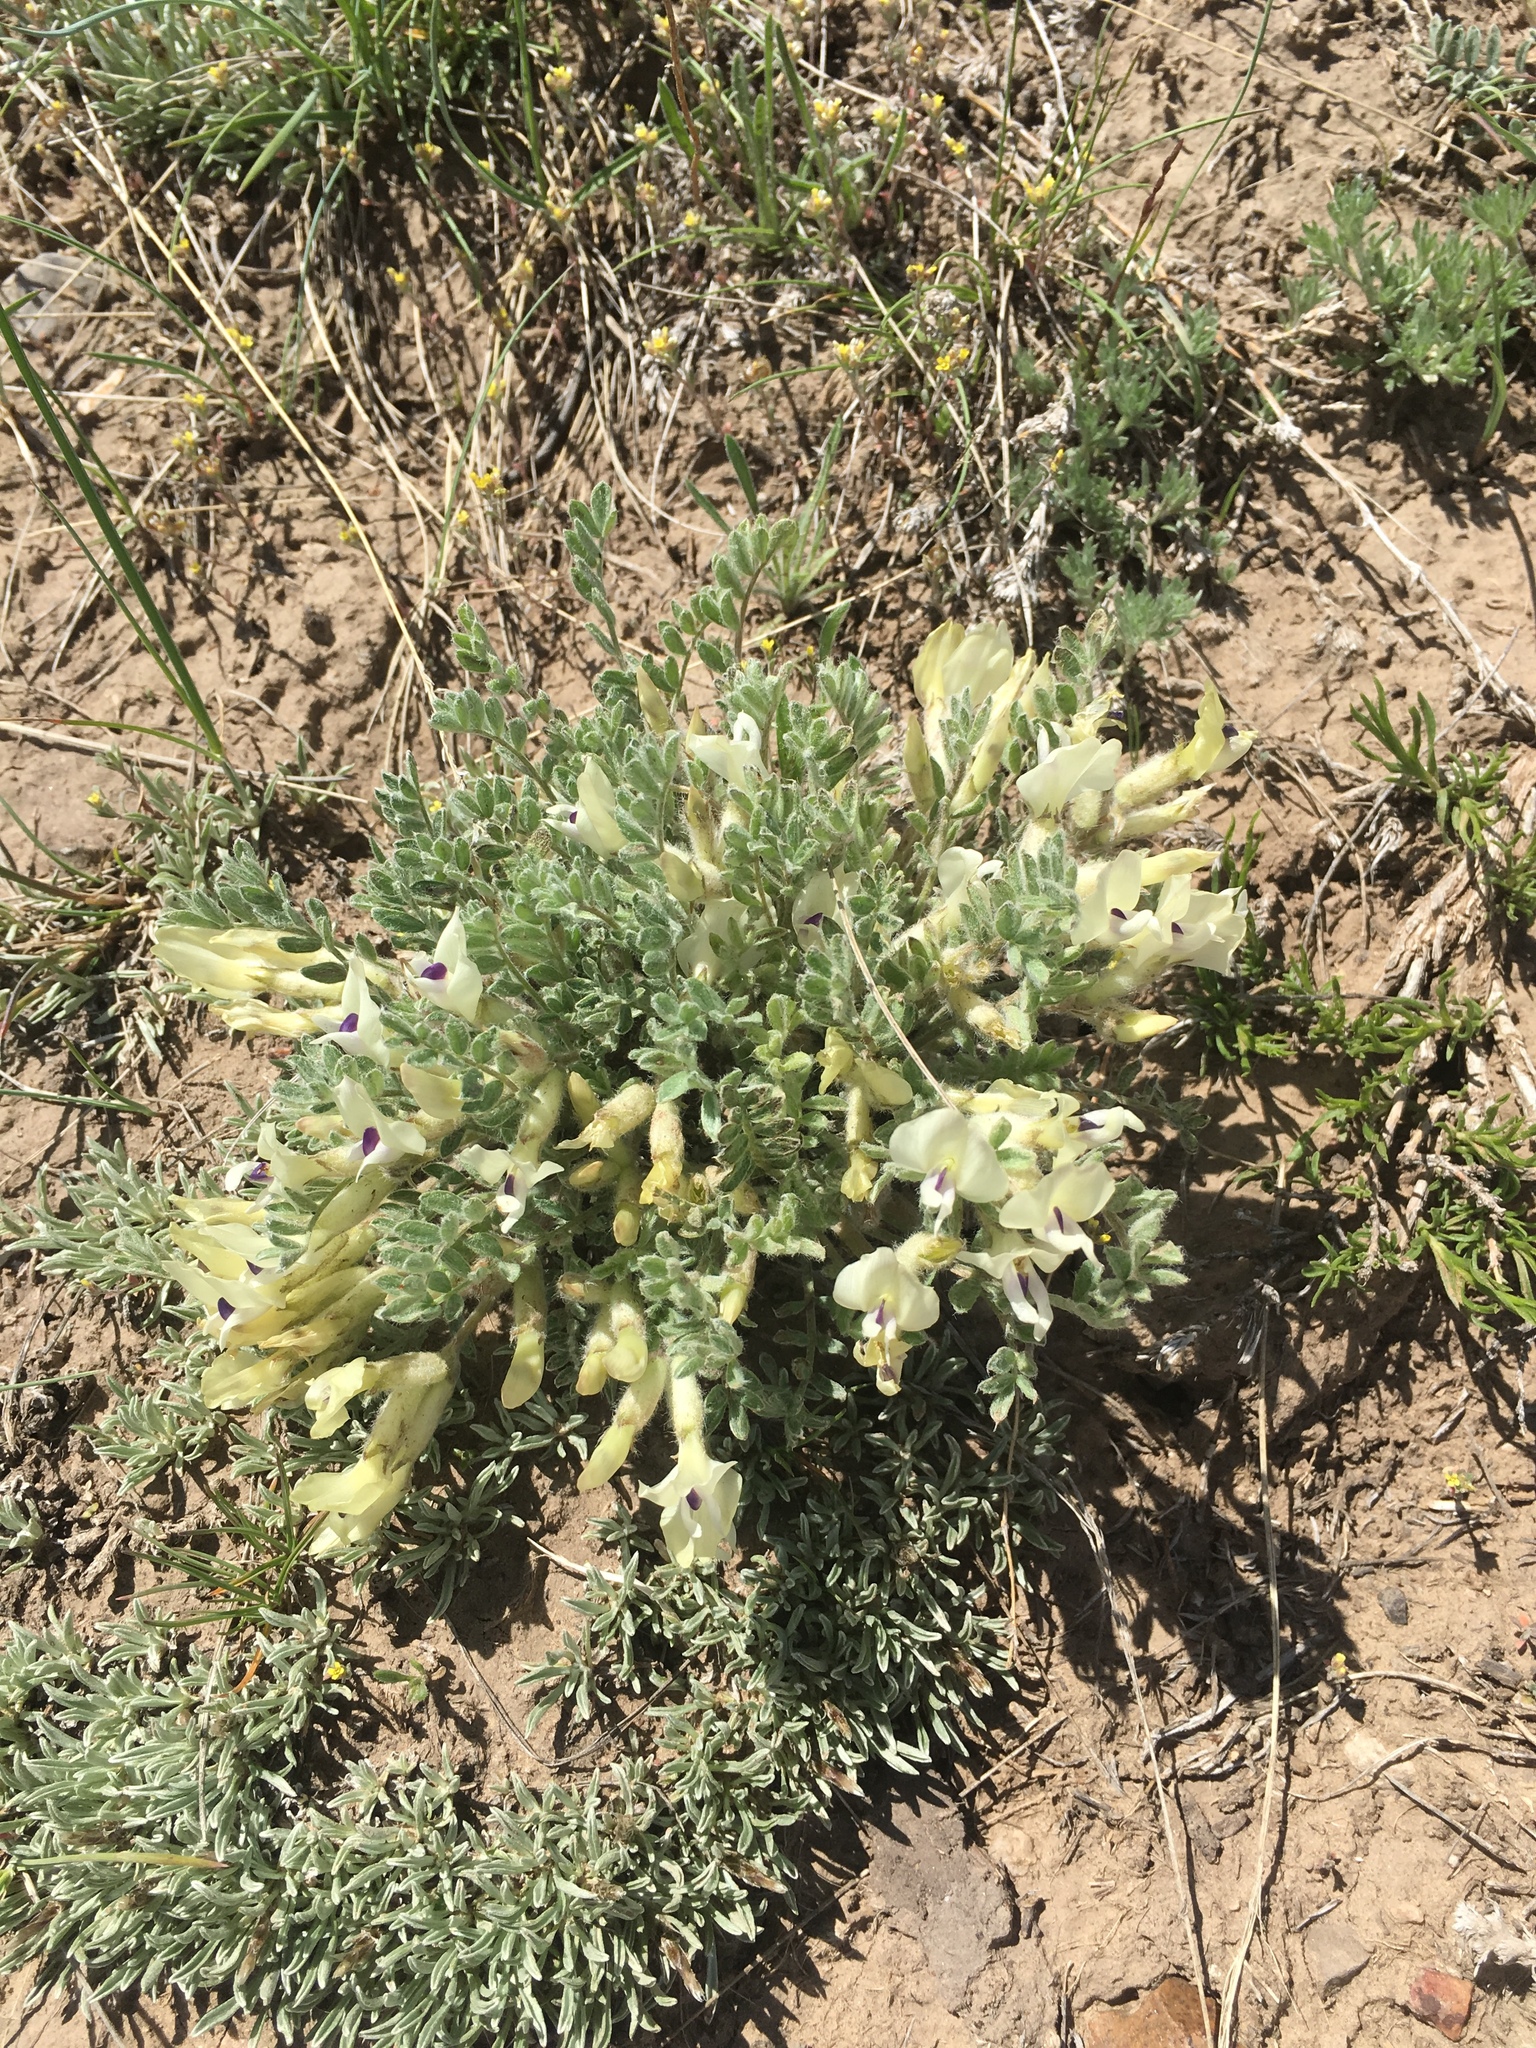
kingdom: Plantae
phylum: Tracheophyta
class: Magnoliopsida
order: Fabales
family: Fabaceae
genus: Astragalus
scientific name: Astragalus purshii
